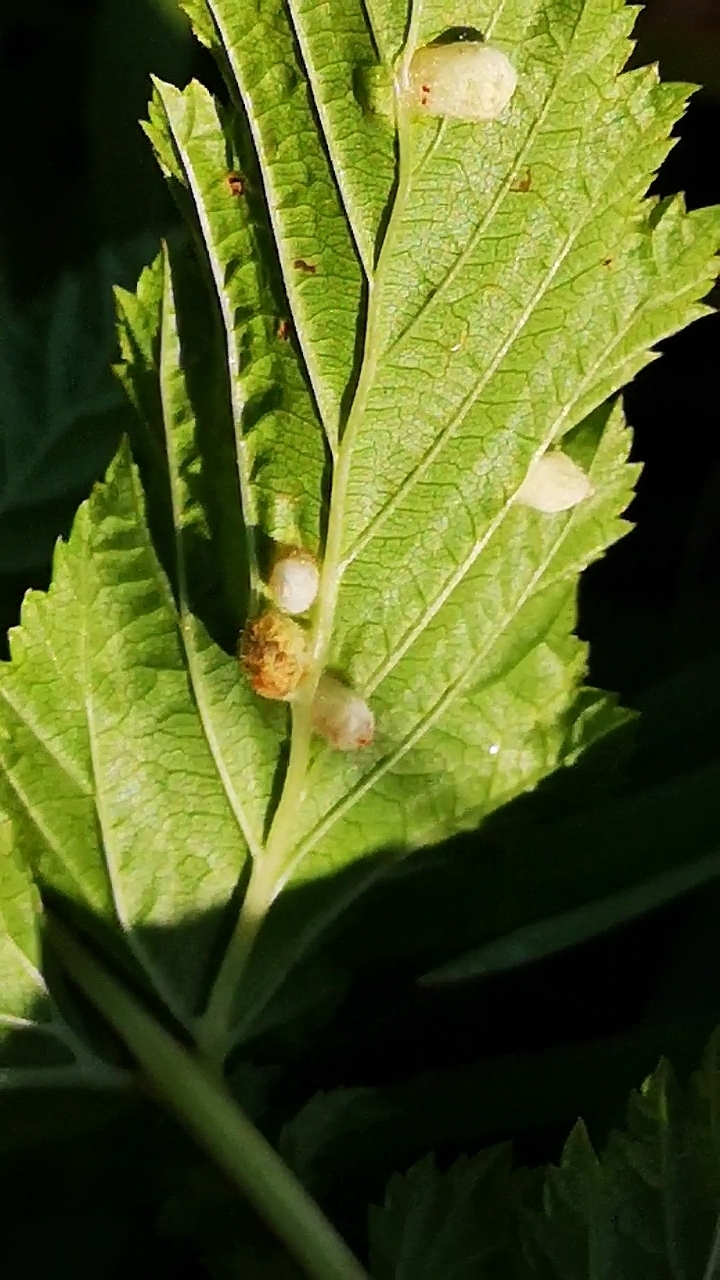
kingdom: Animalia
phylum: Arthropoda
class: Insecta
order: Diptera
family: Cecidomyiidae
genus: Dasineura
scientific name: Dasineura ulmaria
